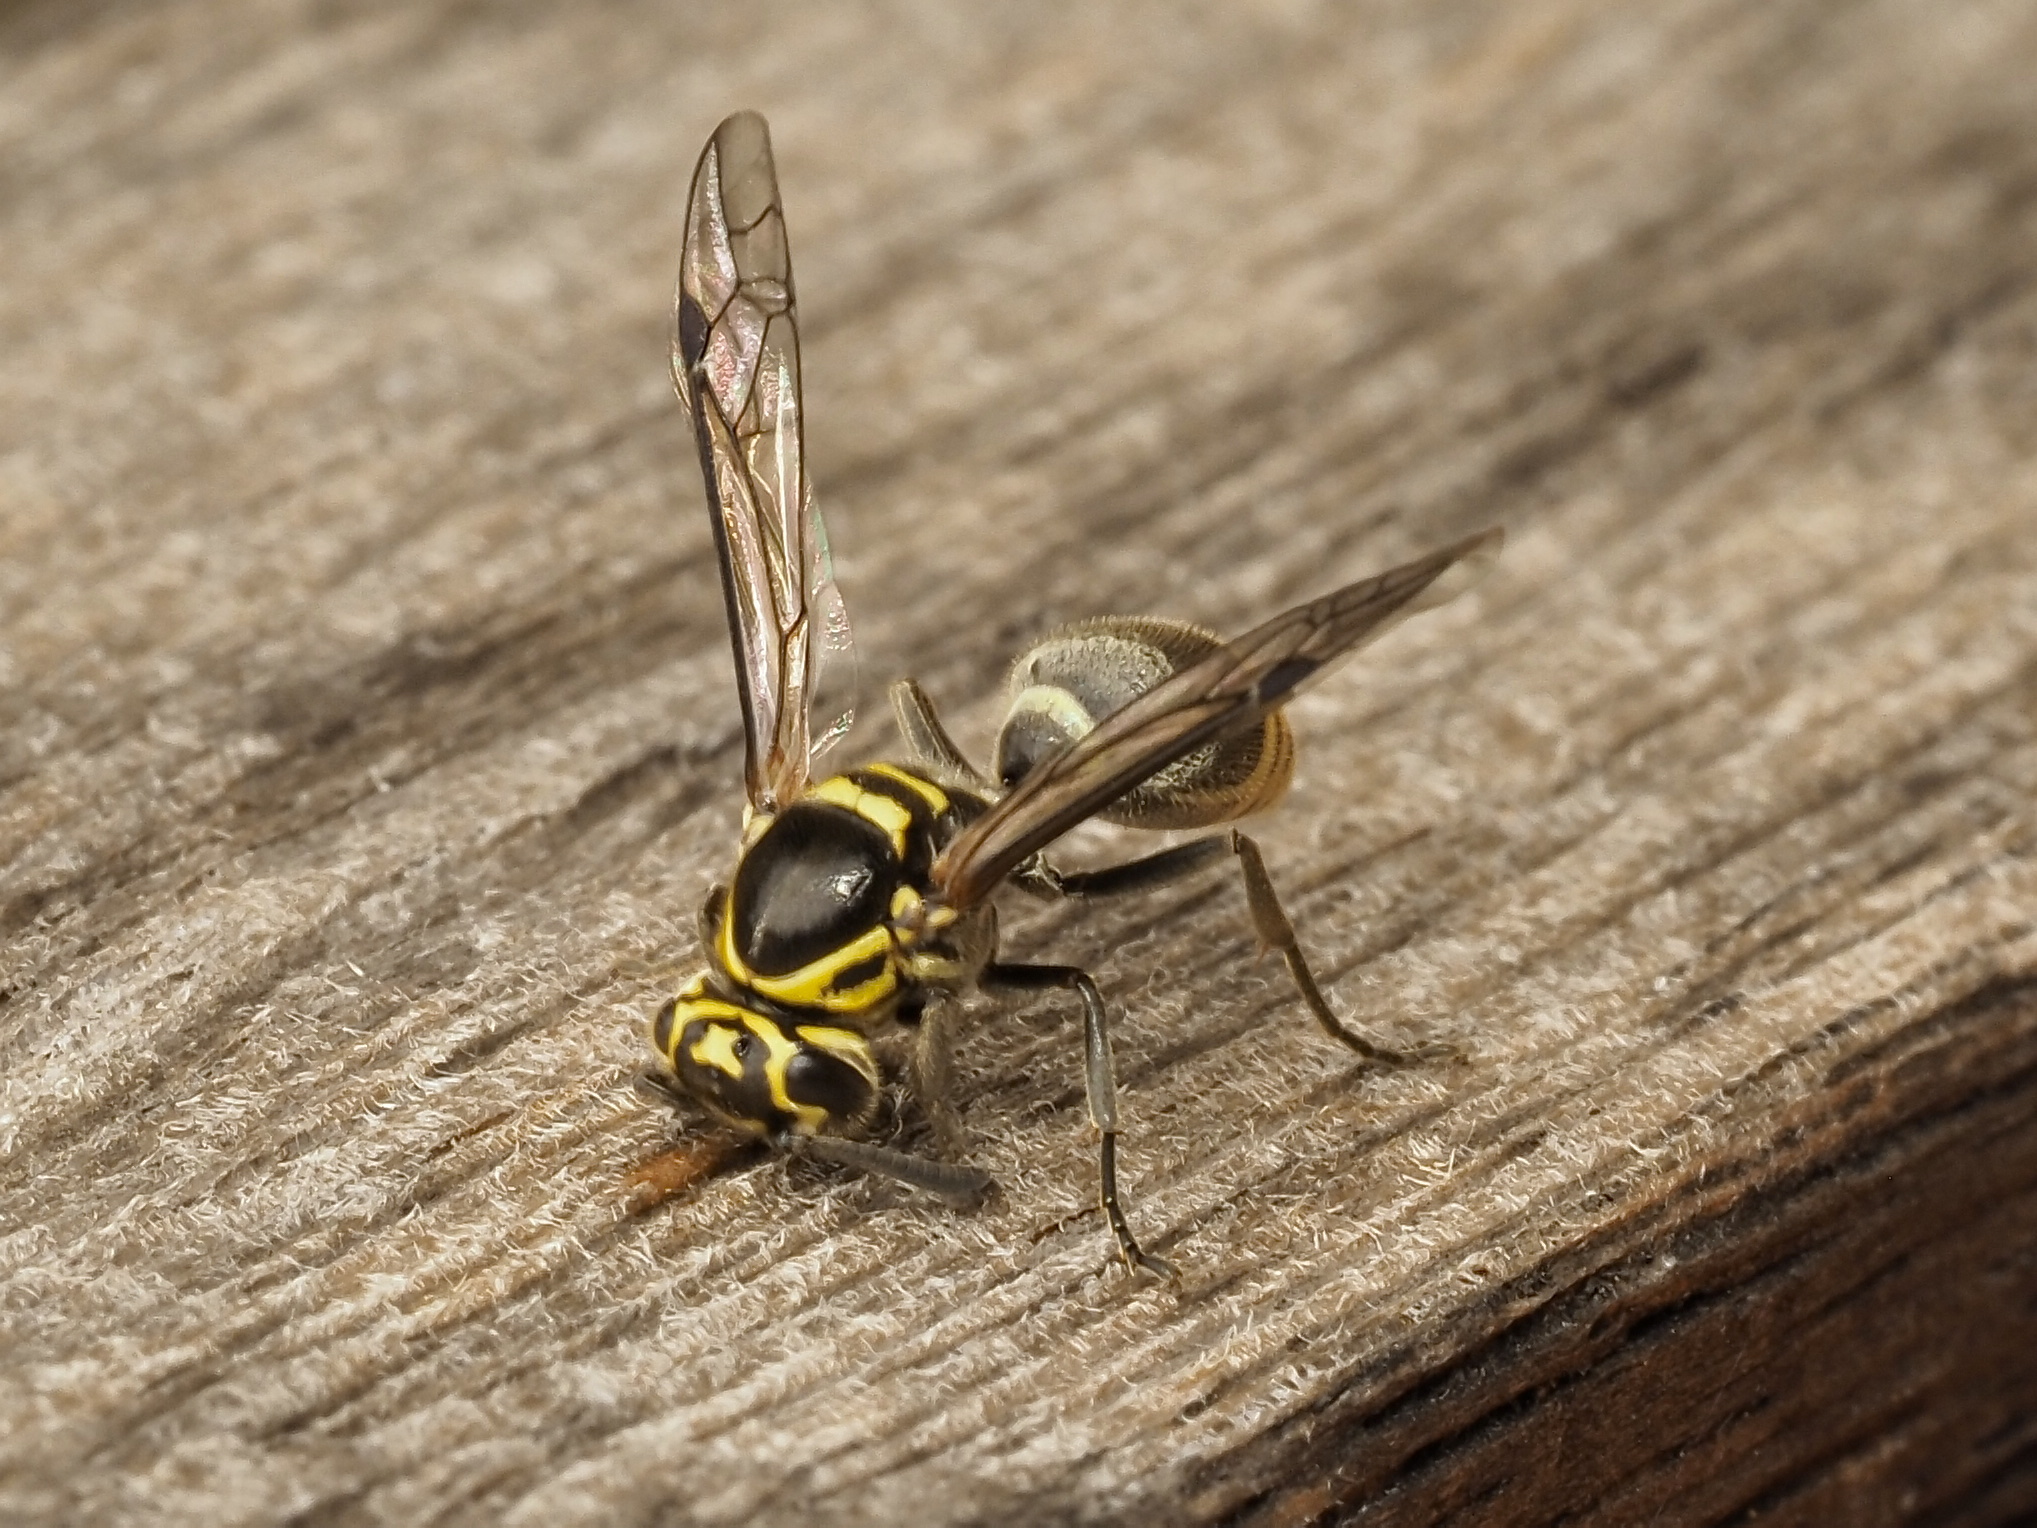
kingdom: Animalia
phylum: Arthropoda
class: Insecta
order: Hymenoptera
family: Vespidae
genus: Protonectarina
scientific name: Protonectarina sylveirae
